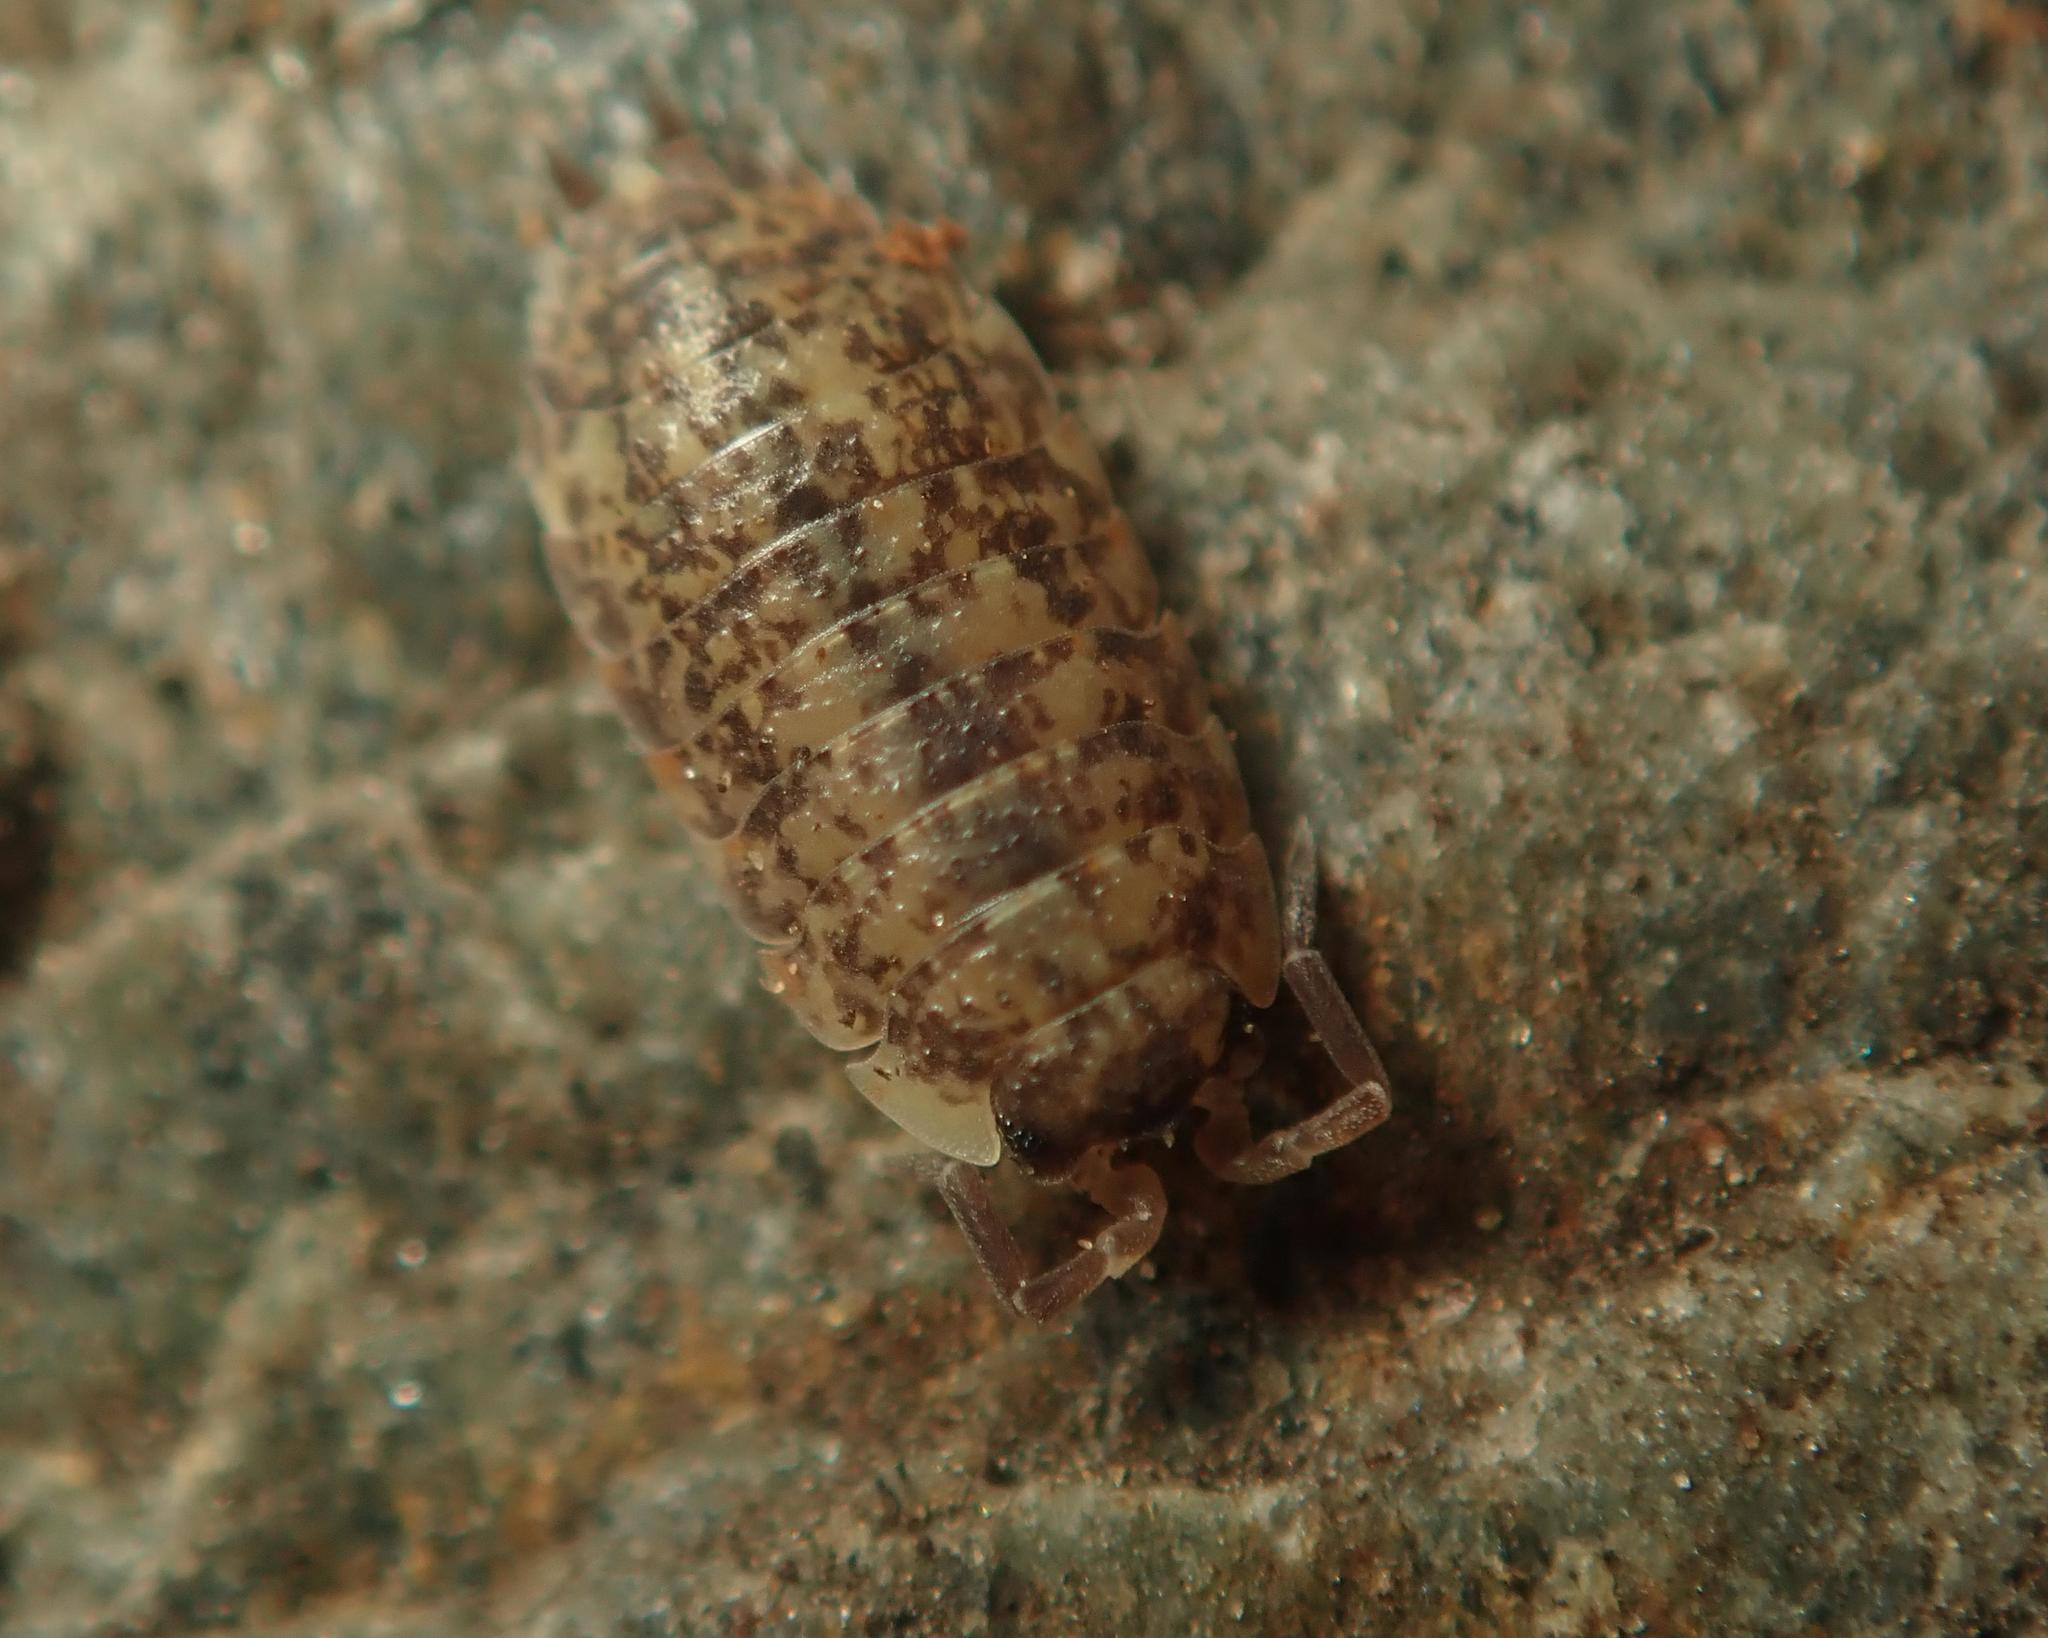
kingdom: Animalia
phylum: Arthropoda
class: Malacostraca
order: Isopoda
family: Porcellionidae
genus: Porcellio
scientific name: Porcellio scaber
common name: Common rough woodlouse
